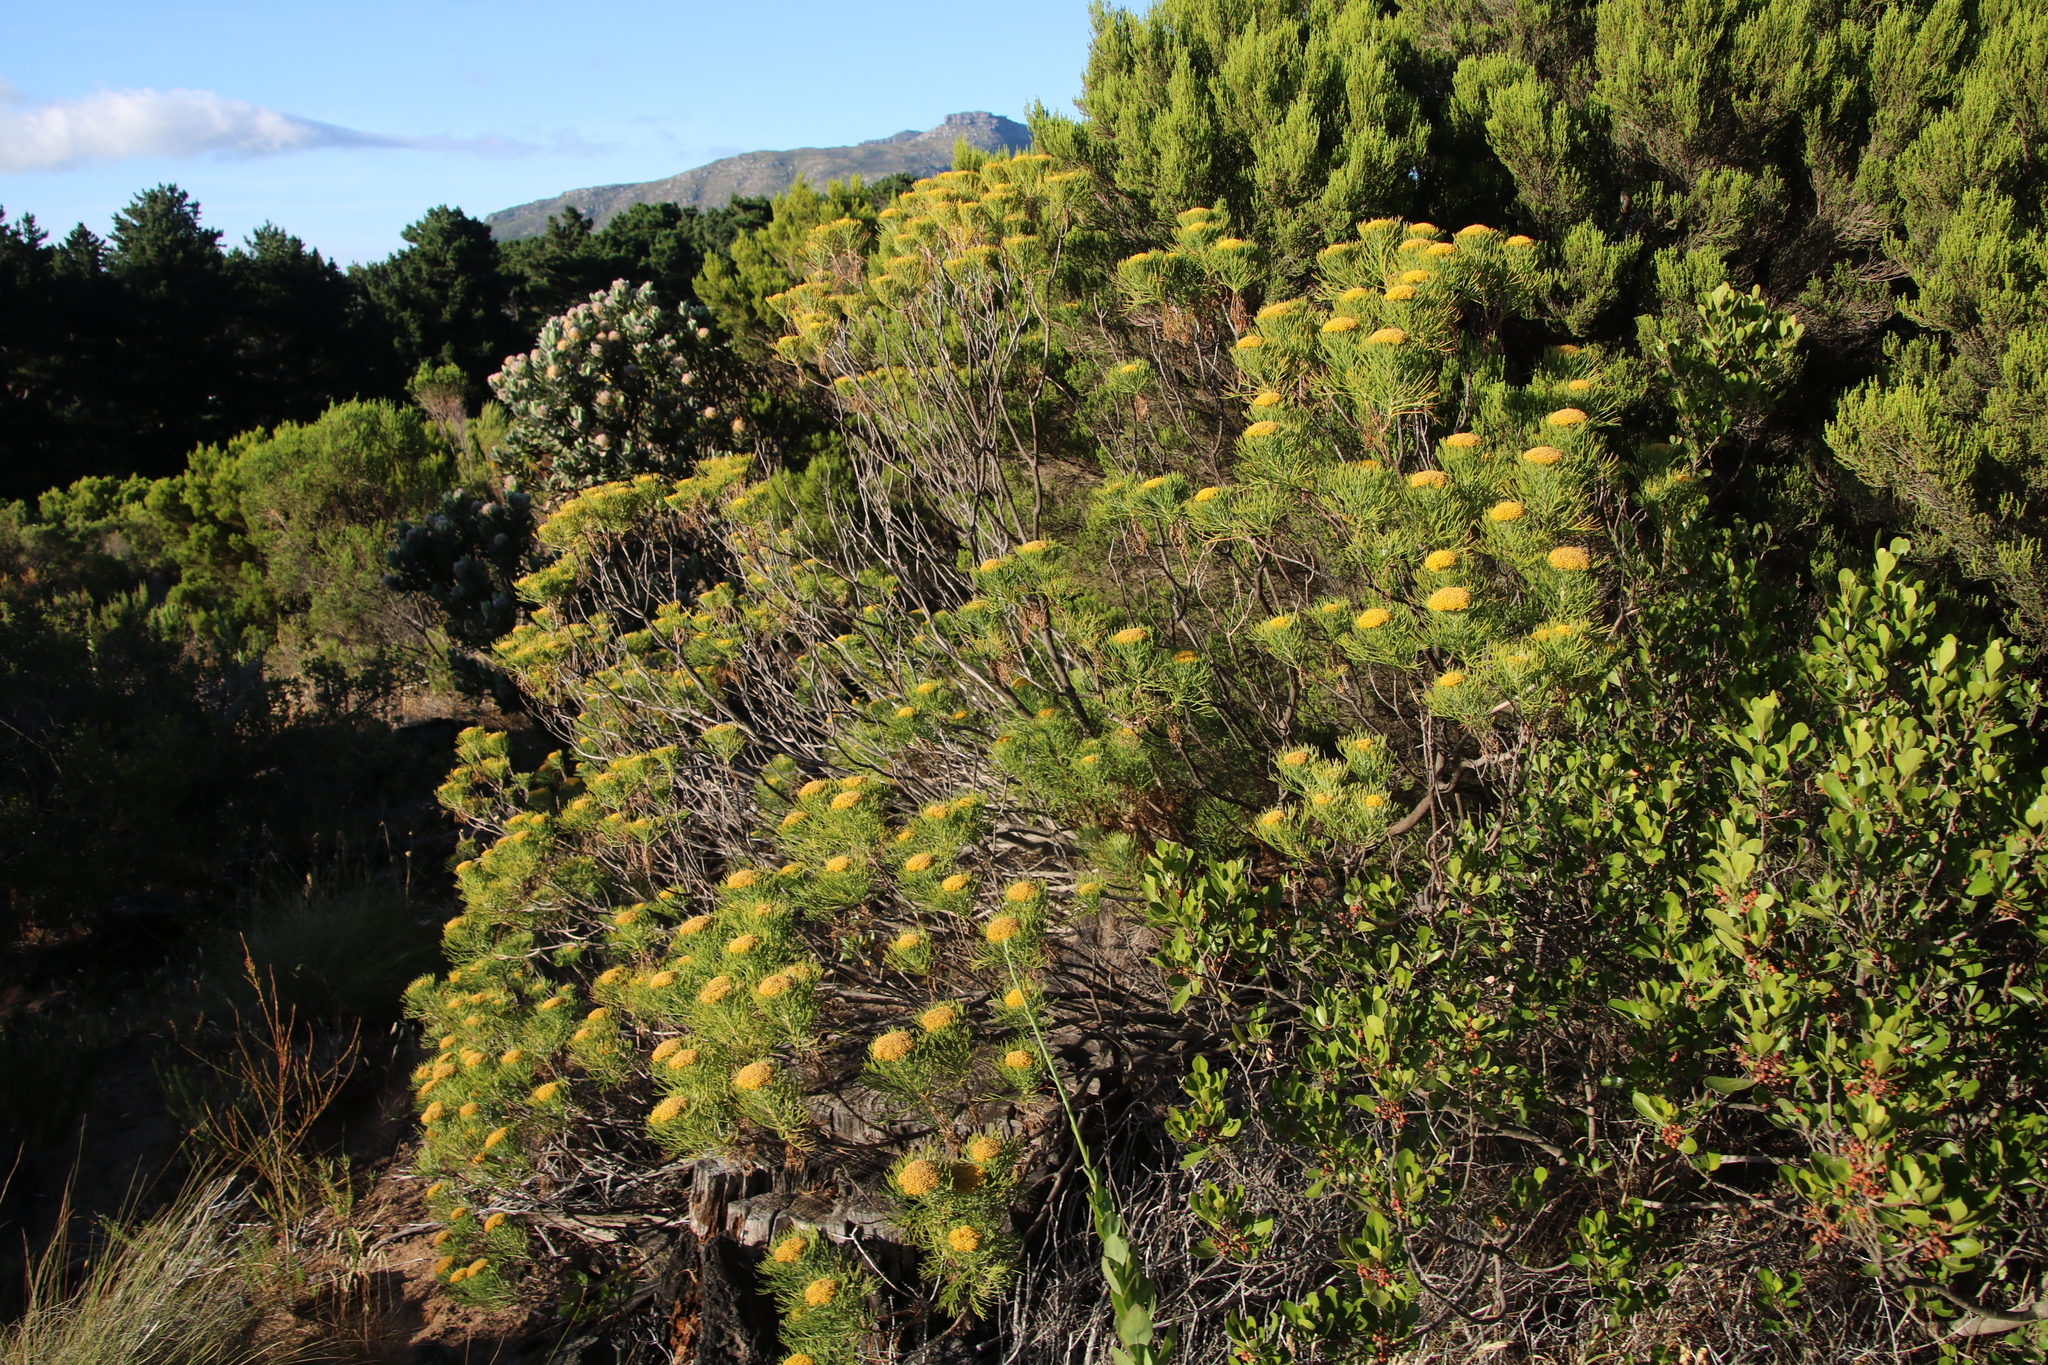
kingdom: Plantae
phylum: Tracheophyta
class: Magnoliopsida
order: Asterales
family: Asteraceae
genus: Hymenolepis
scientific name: Hymenolepis crithmifolia
